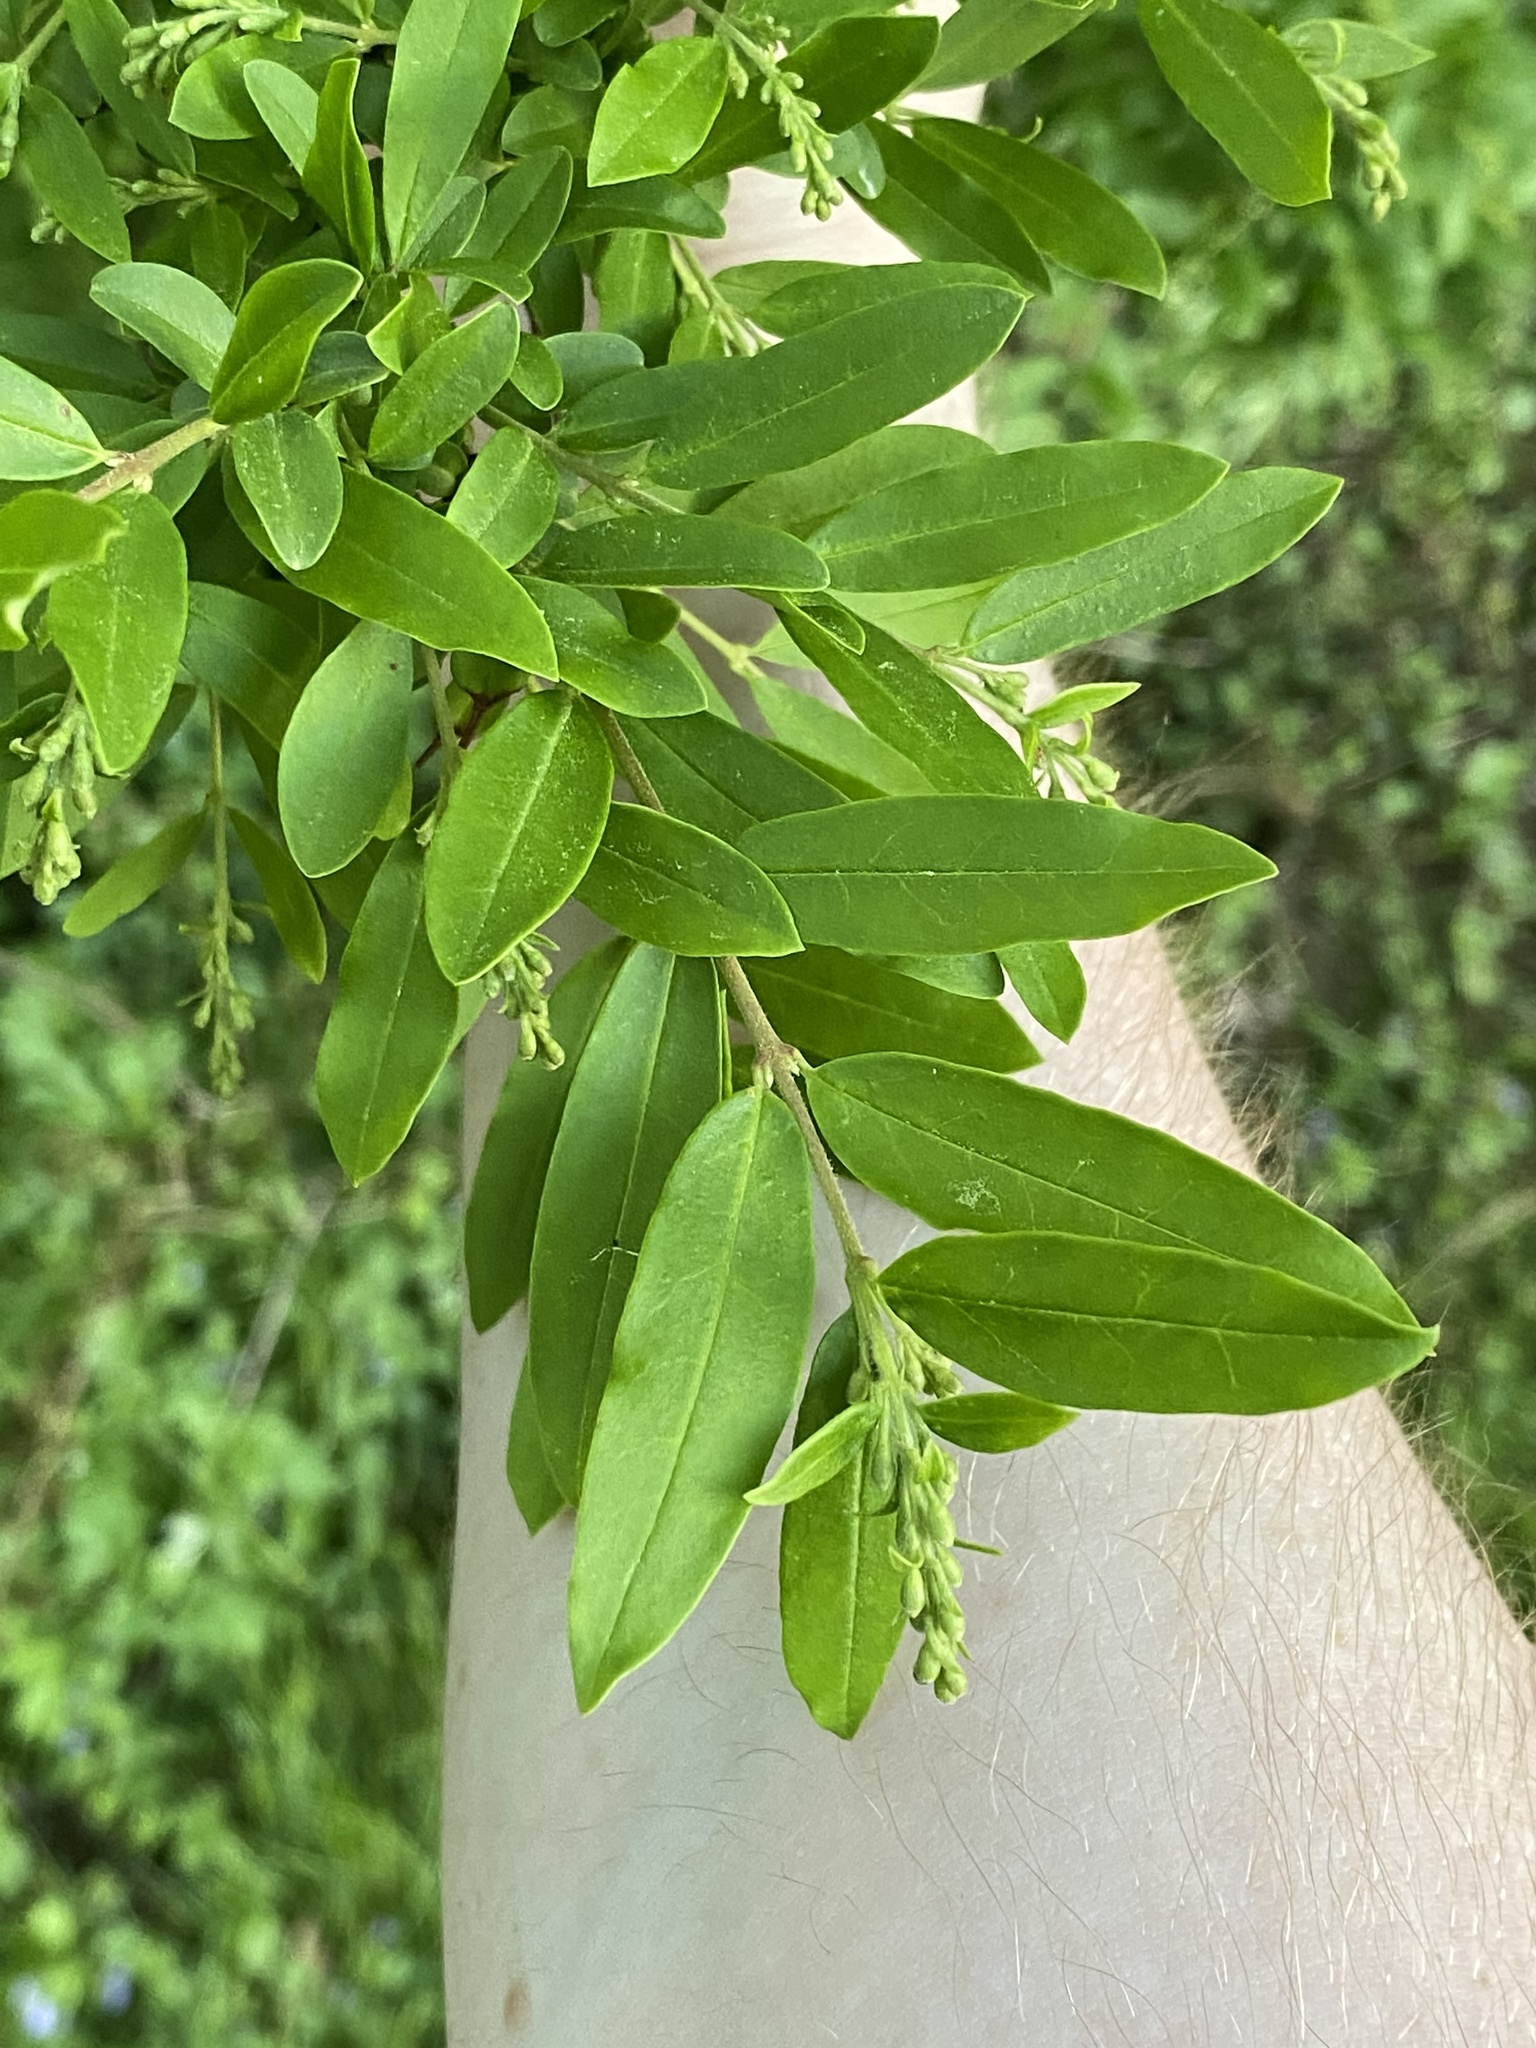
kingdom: Plantae
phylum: Tracheophyta
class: Magnoliopsida
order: Lamiales
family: Oleaceae
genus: Ligustrum
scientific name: Ligustrum obtusifolium
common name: Border privet
